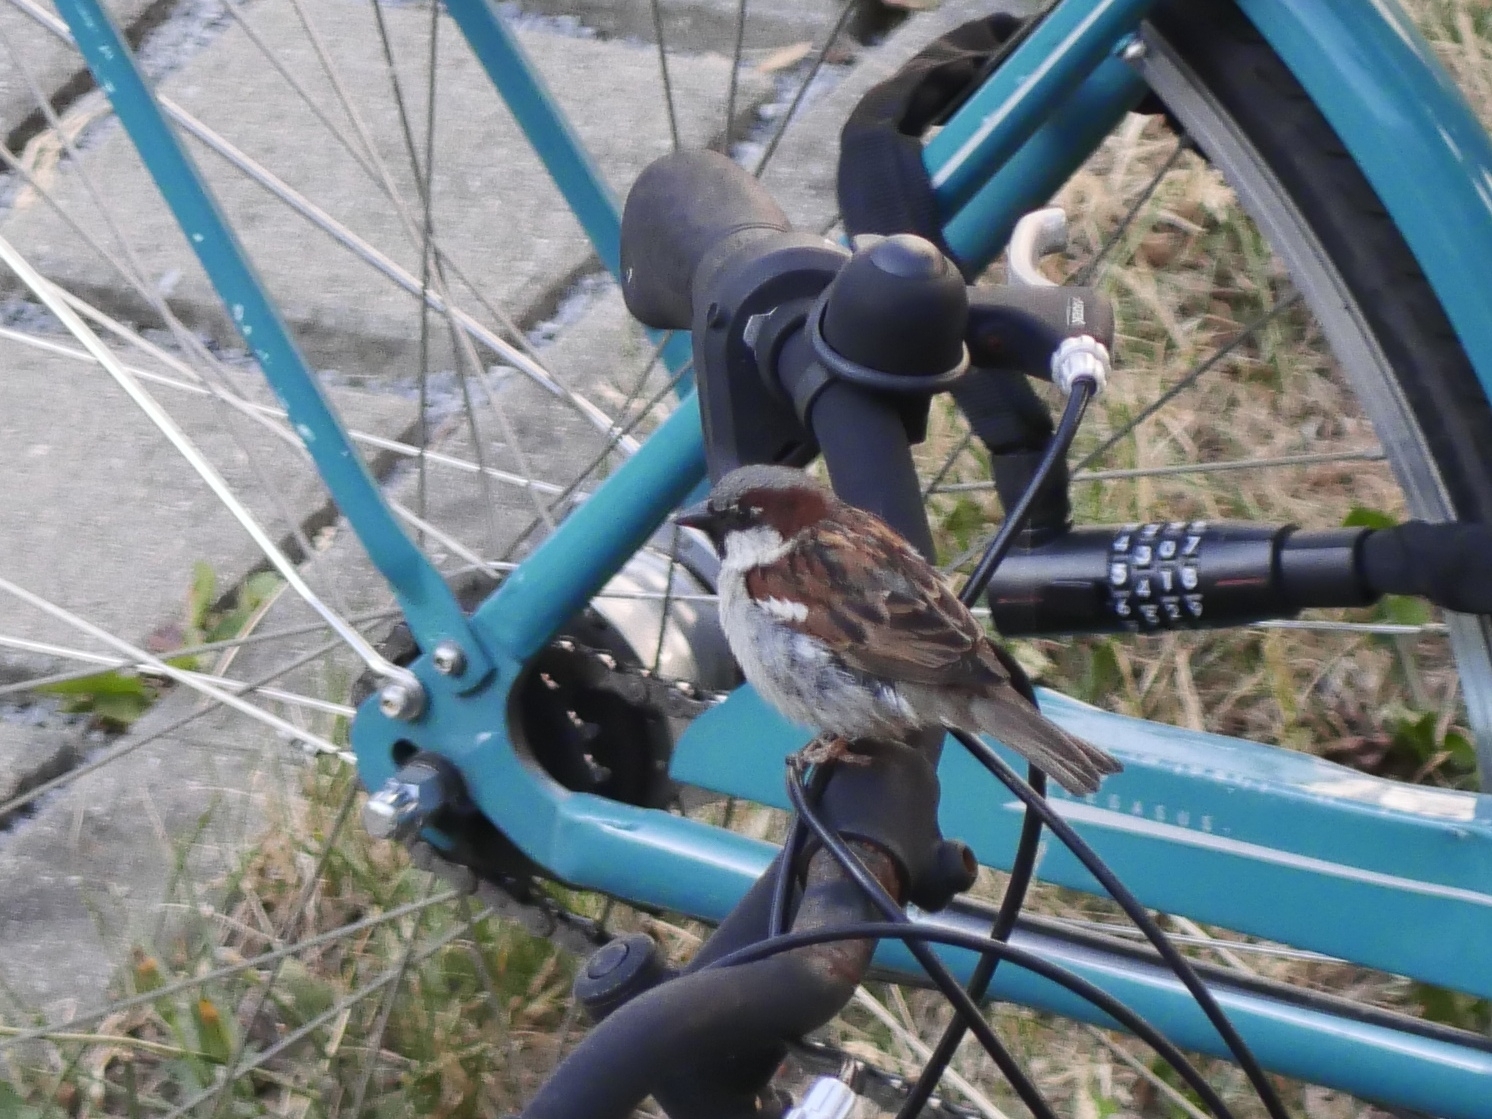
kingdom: Animalia
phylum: Chordata
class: Aves
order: Passeriformes
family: Passeridae
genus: Passer
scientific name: Passer domesticus
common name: House sparrow
